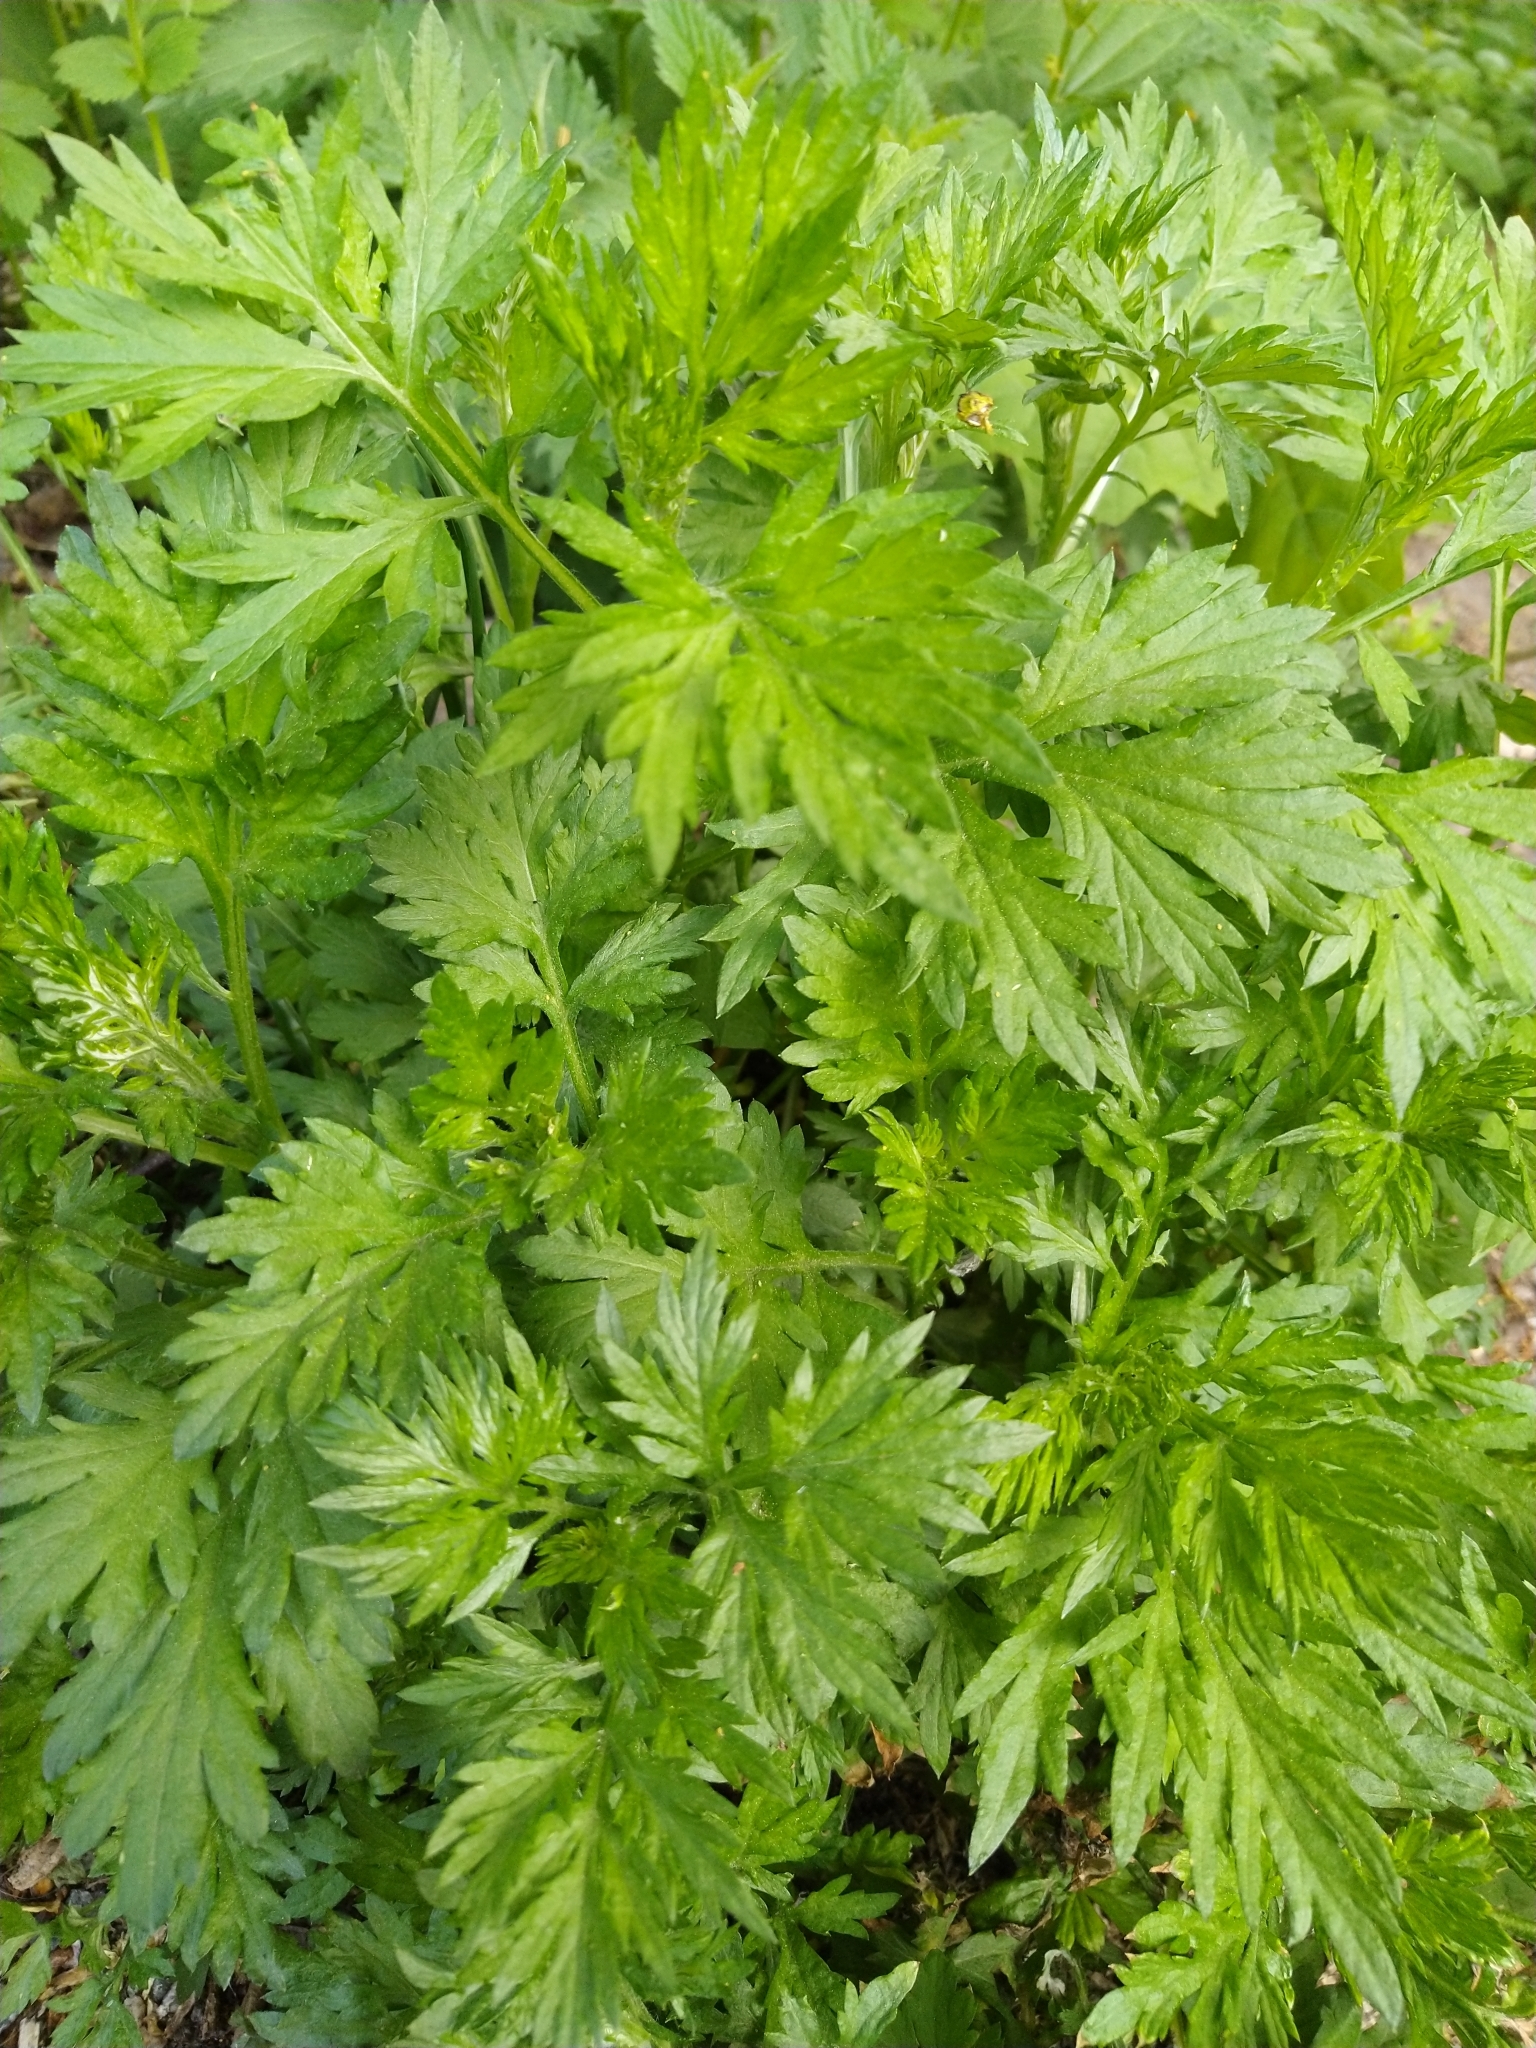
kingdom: Plantae
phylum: Tracheophyta
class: Magnoliopsida
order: Asterales
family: Asteraceae
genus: Artemisia
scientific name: Artemisia vulgaris
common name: Mugwort
